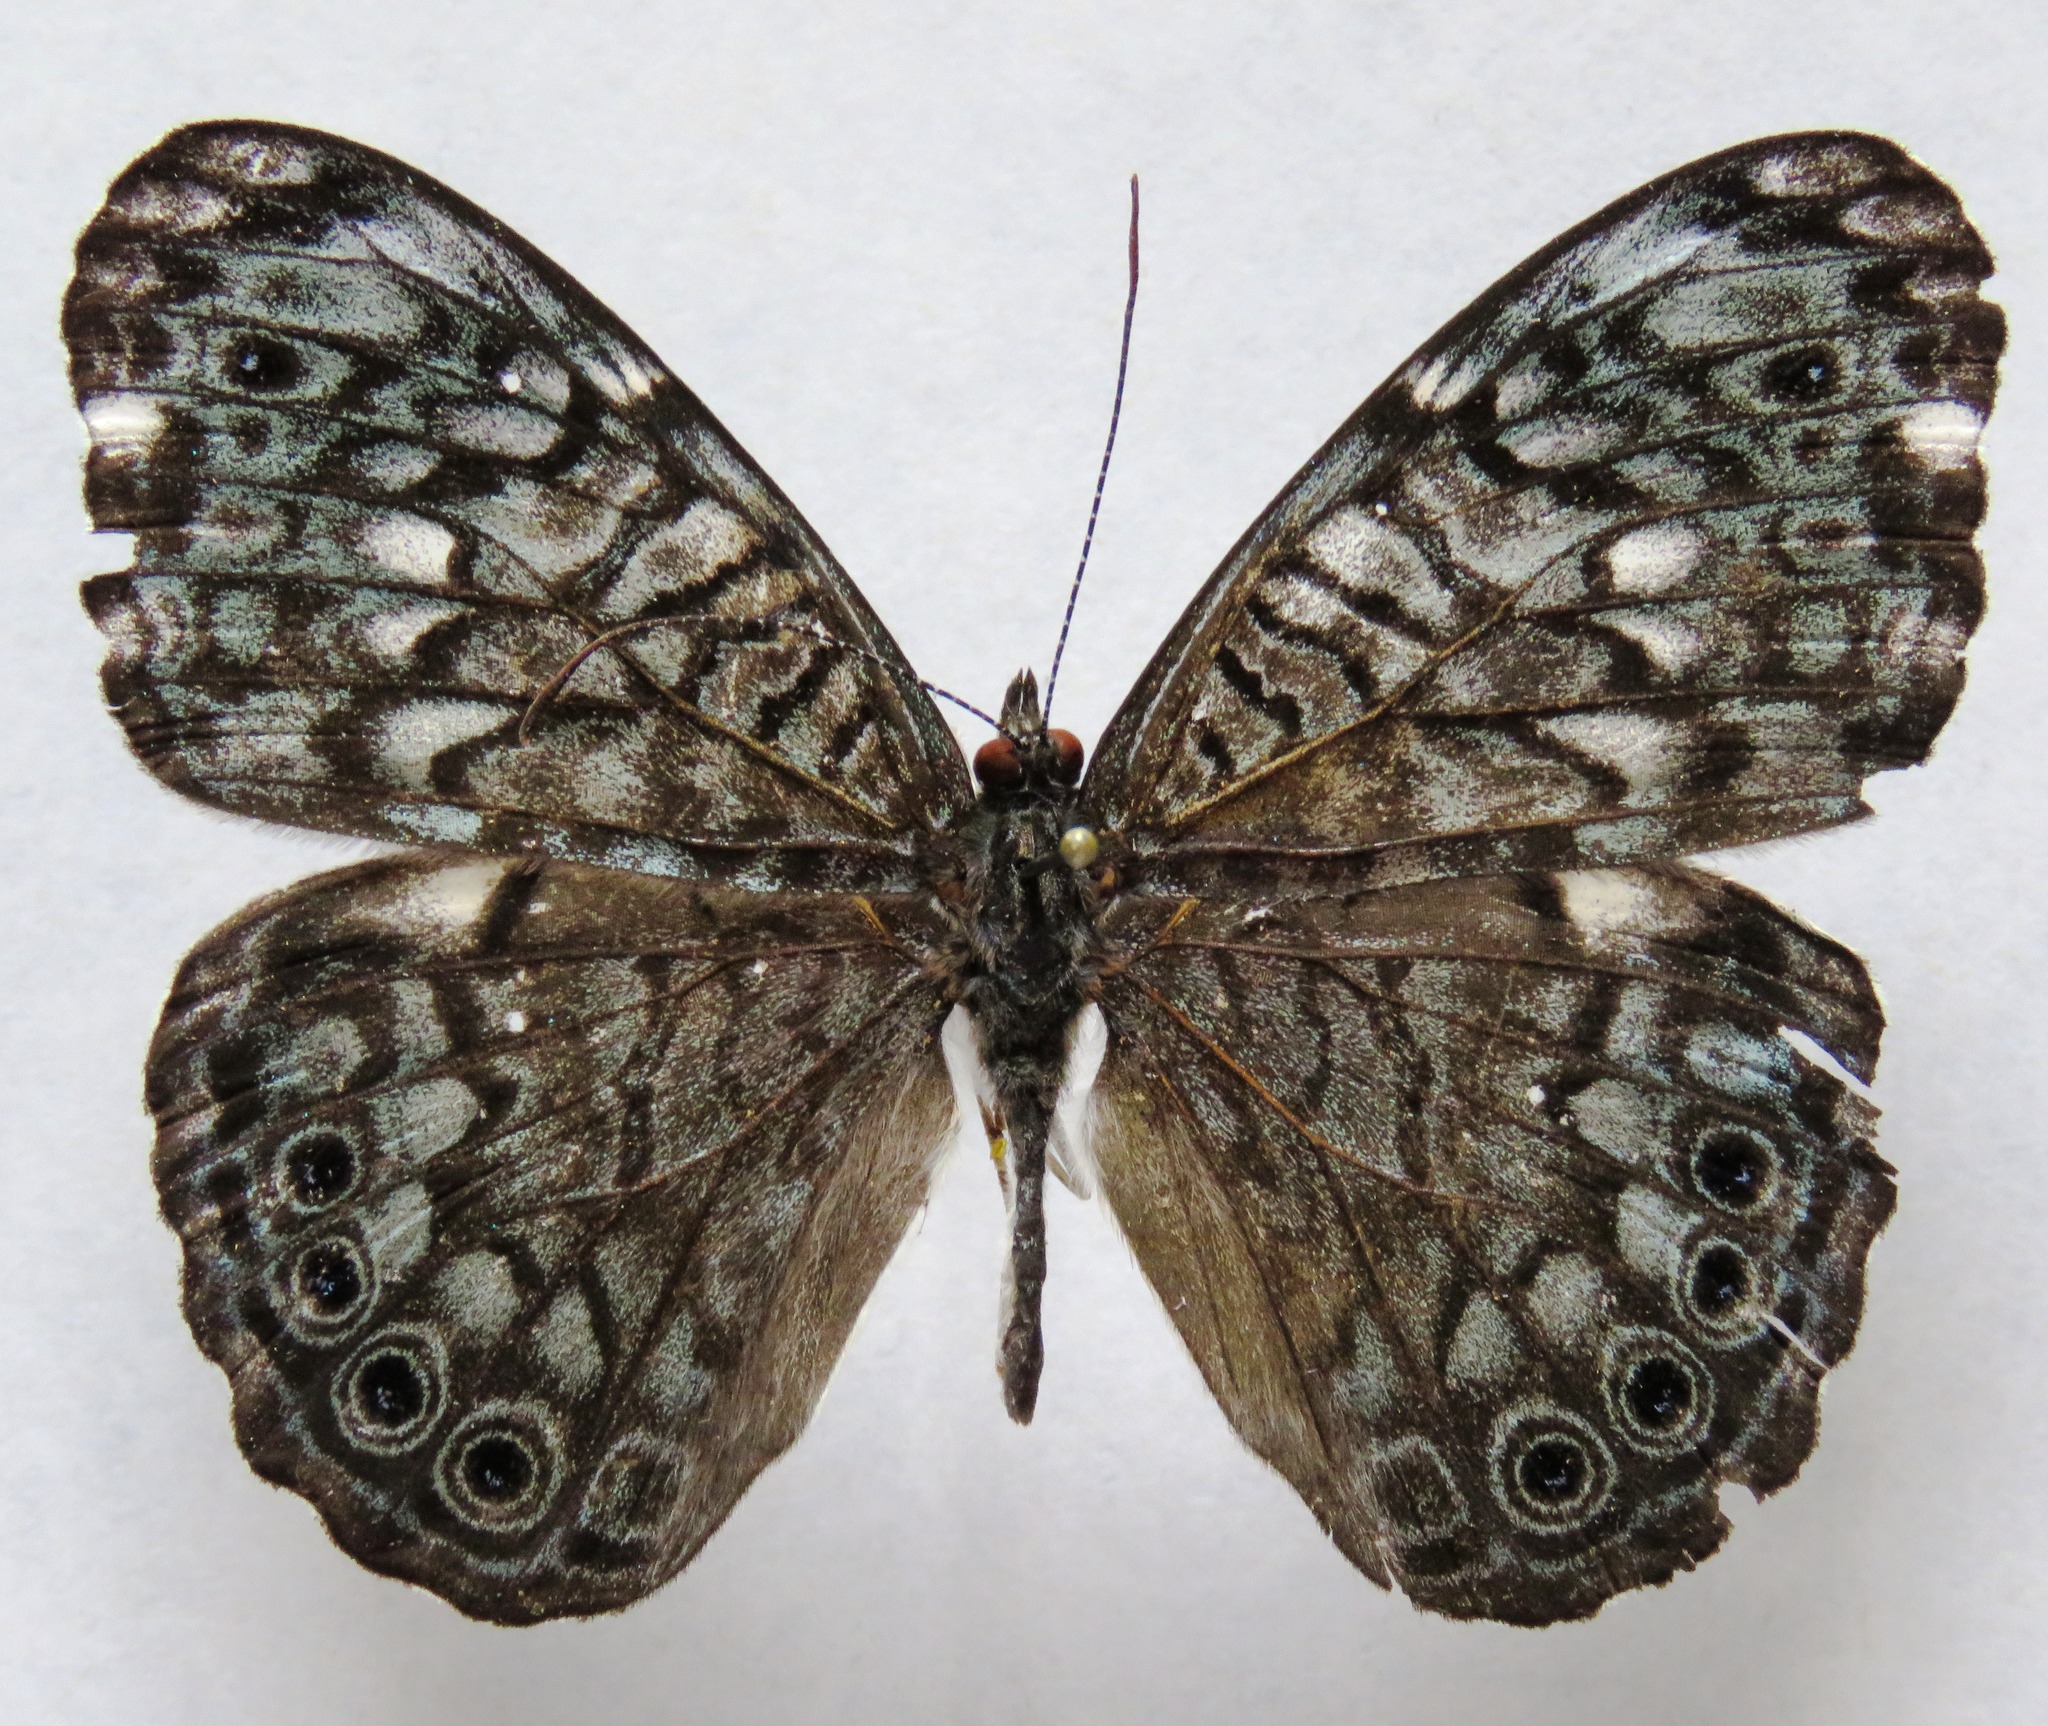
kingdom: Animalia
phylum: Arthropoda
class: Insecta
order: Lepidoptera
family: Nymphalidae
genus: Hamadryas
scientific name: Hamadryas atlantis
